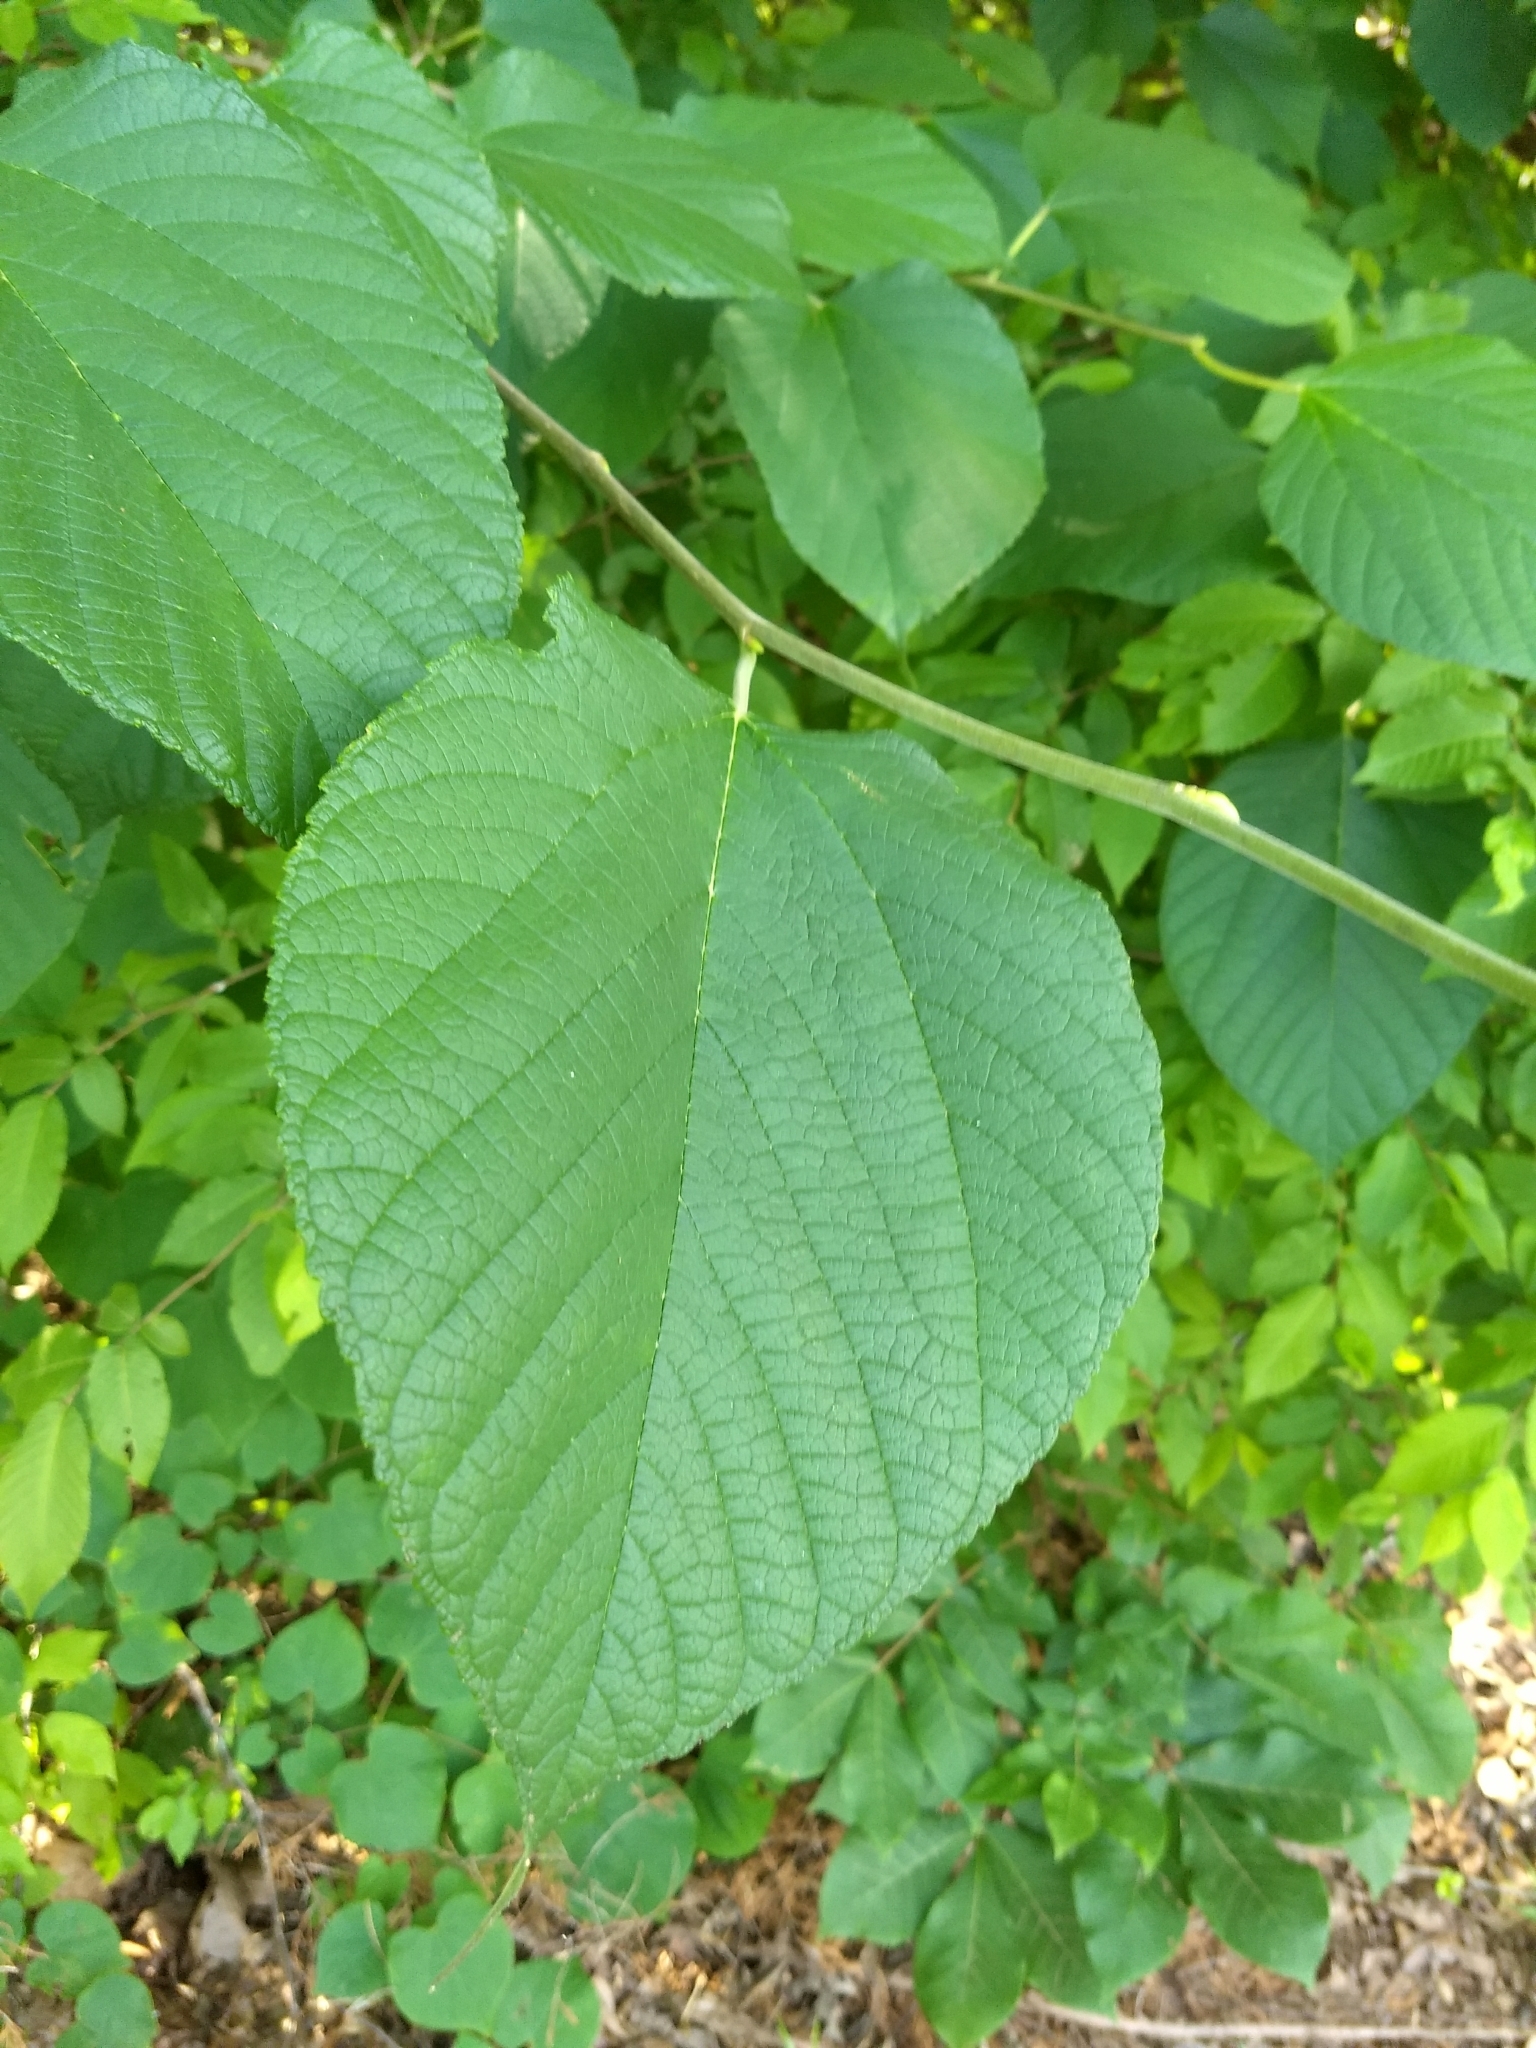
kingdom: Plantae
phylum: Tracheophyta
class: Magnoliopsida
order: Malvales
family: Malvaceae
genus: Tilia
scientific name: Tilia americana
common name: Basswood
